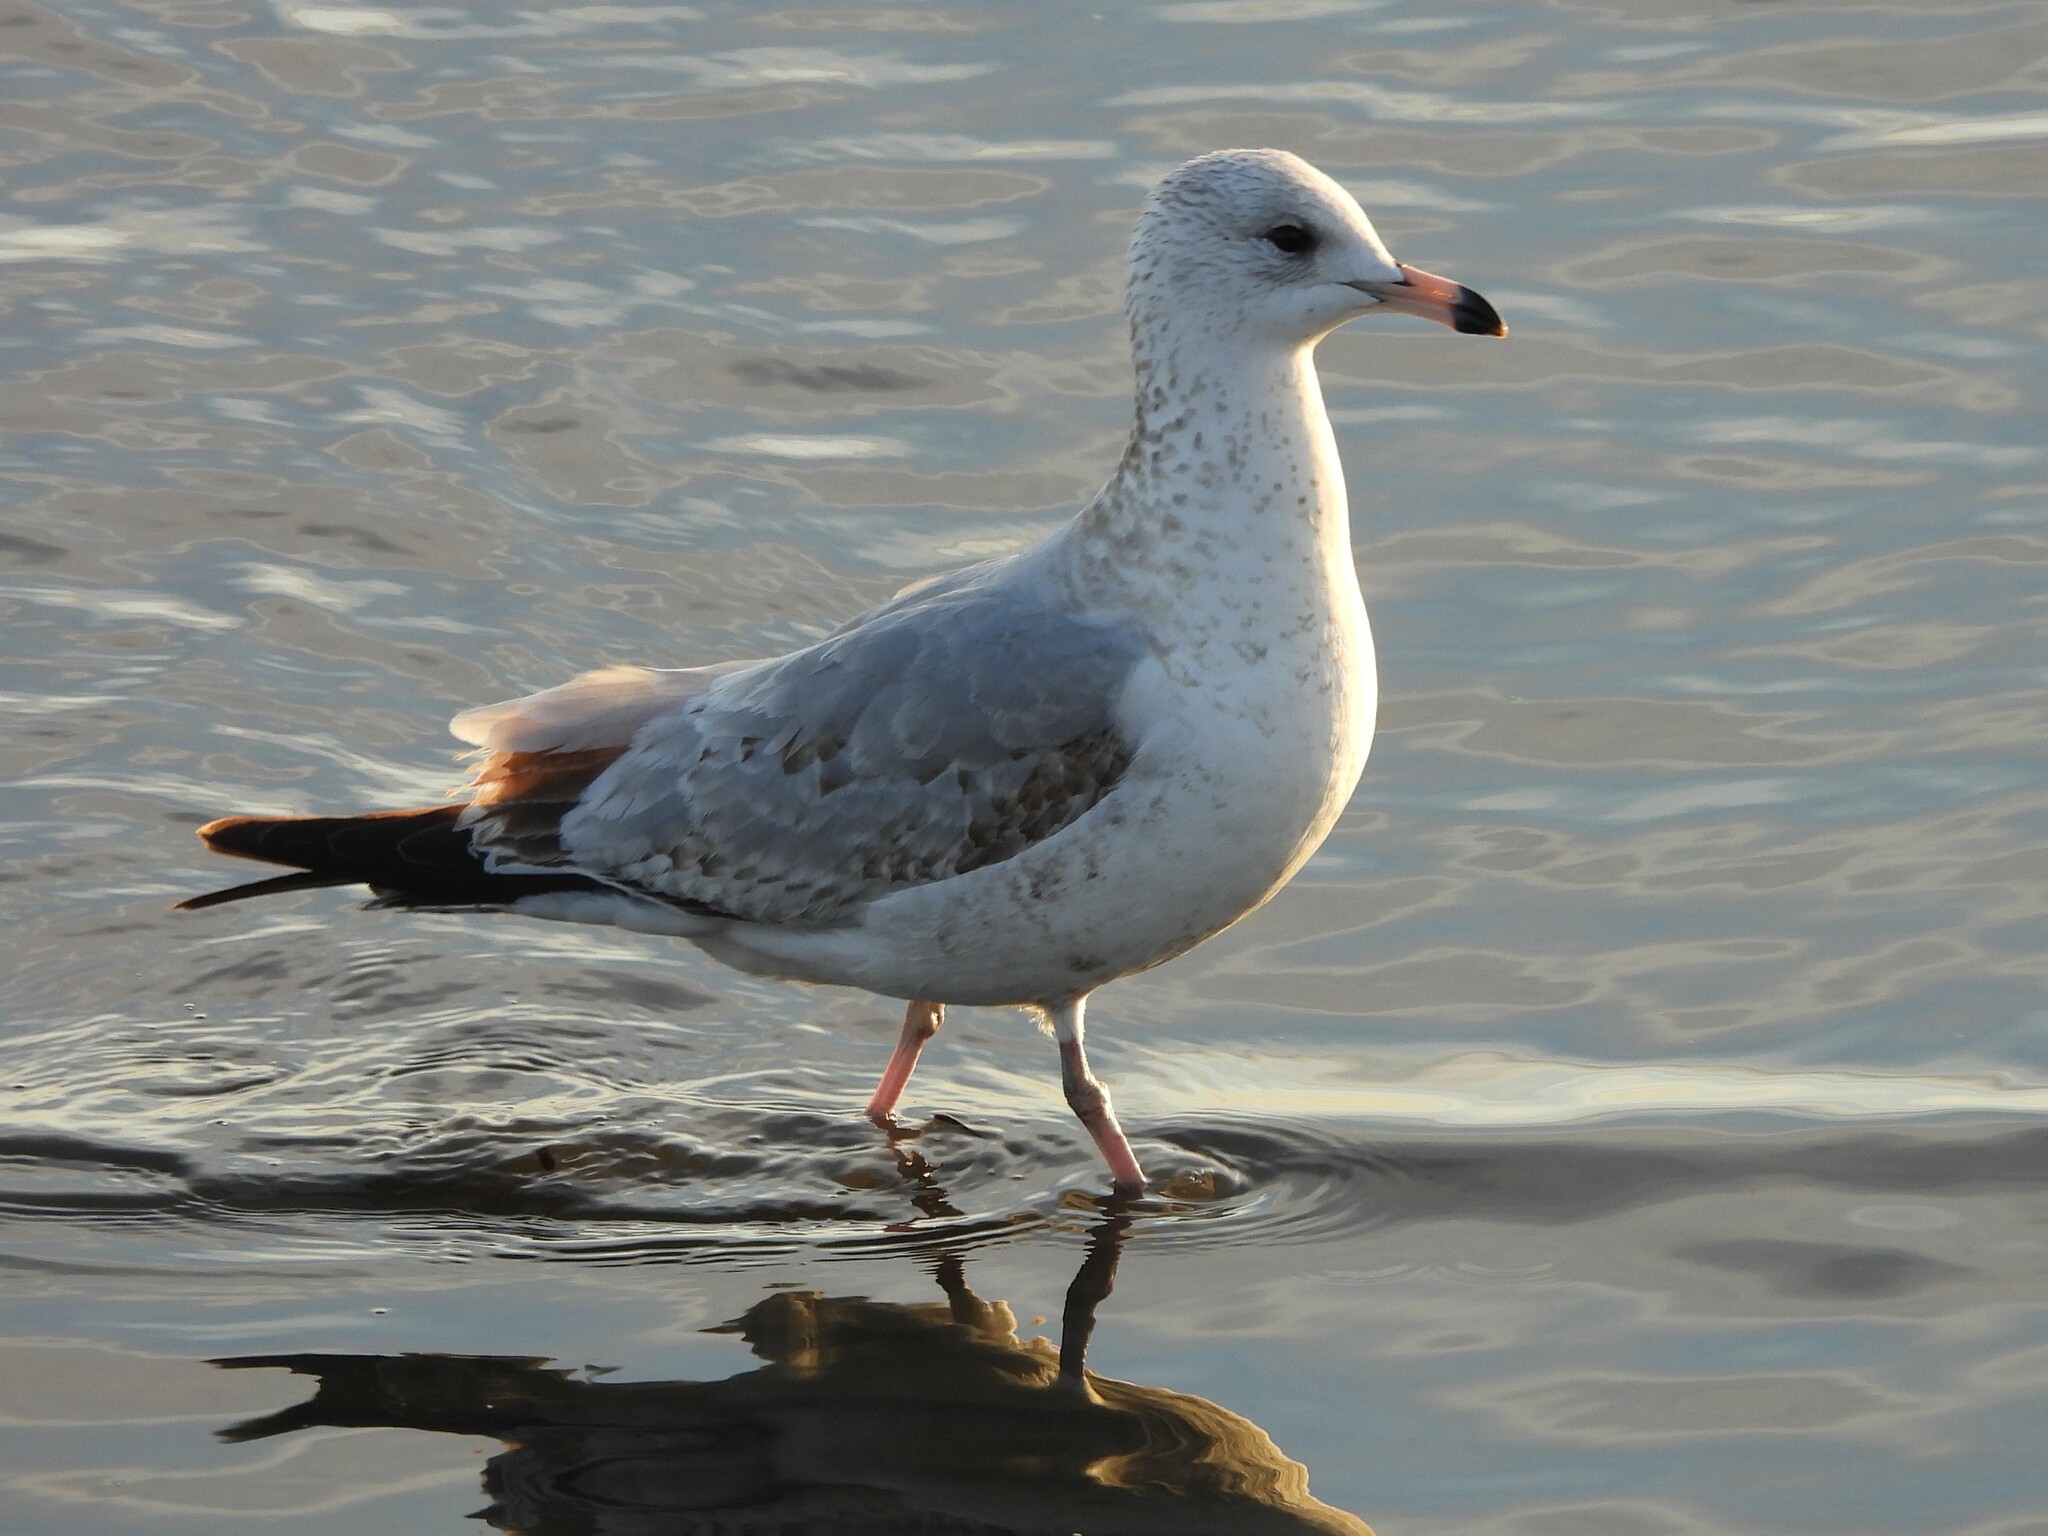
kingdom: Animalia
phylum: Chordata
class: Aves
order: Charadriiformes
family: Laridae
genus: Larus
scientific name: Larus delawarensis
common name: Ring-billed gull
